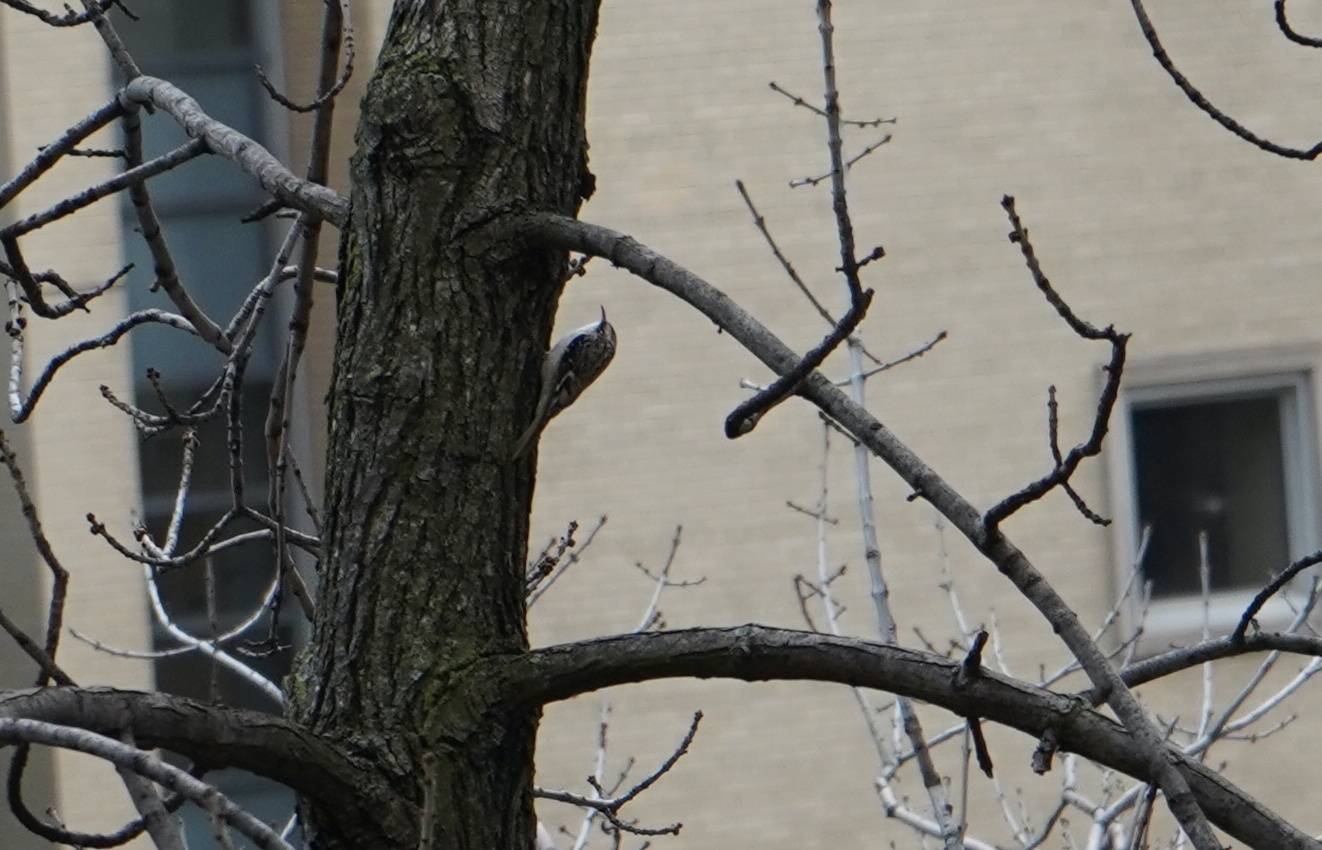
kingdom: Animalia
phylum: Chordata
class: Aves
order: Passeriformes
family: Certhiidae
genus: Certhia
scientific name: Certhia americana
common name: Brown creeper
